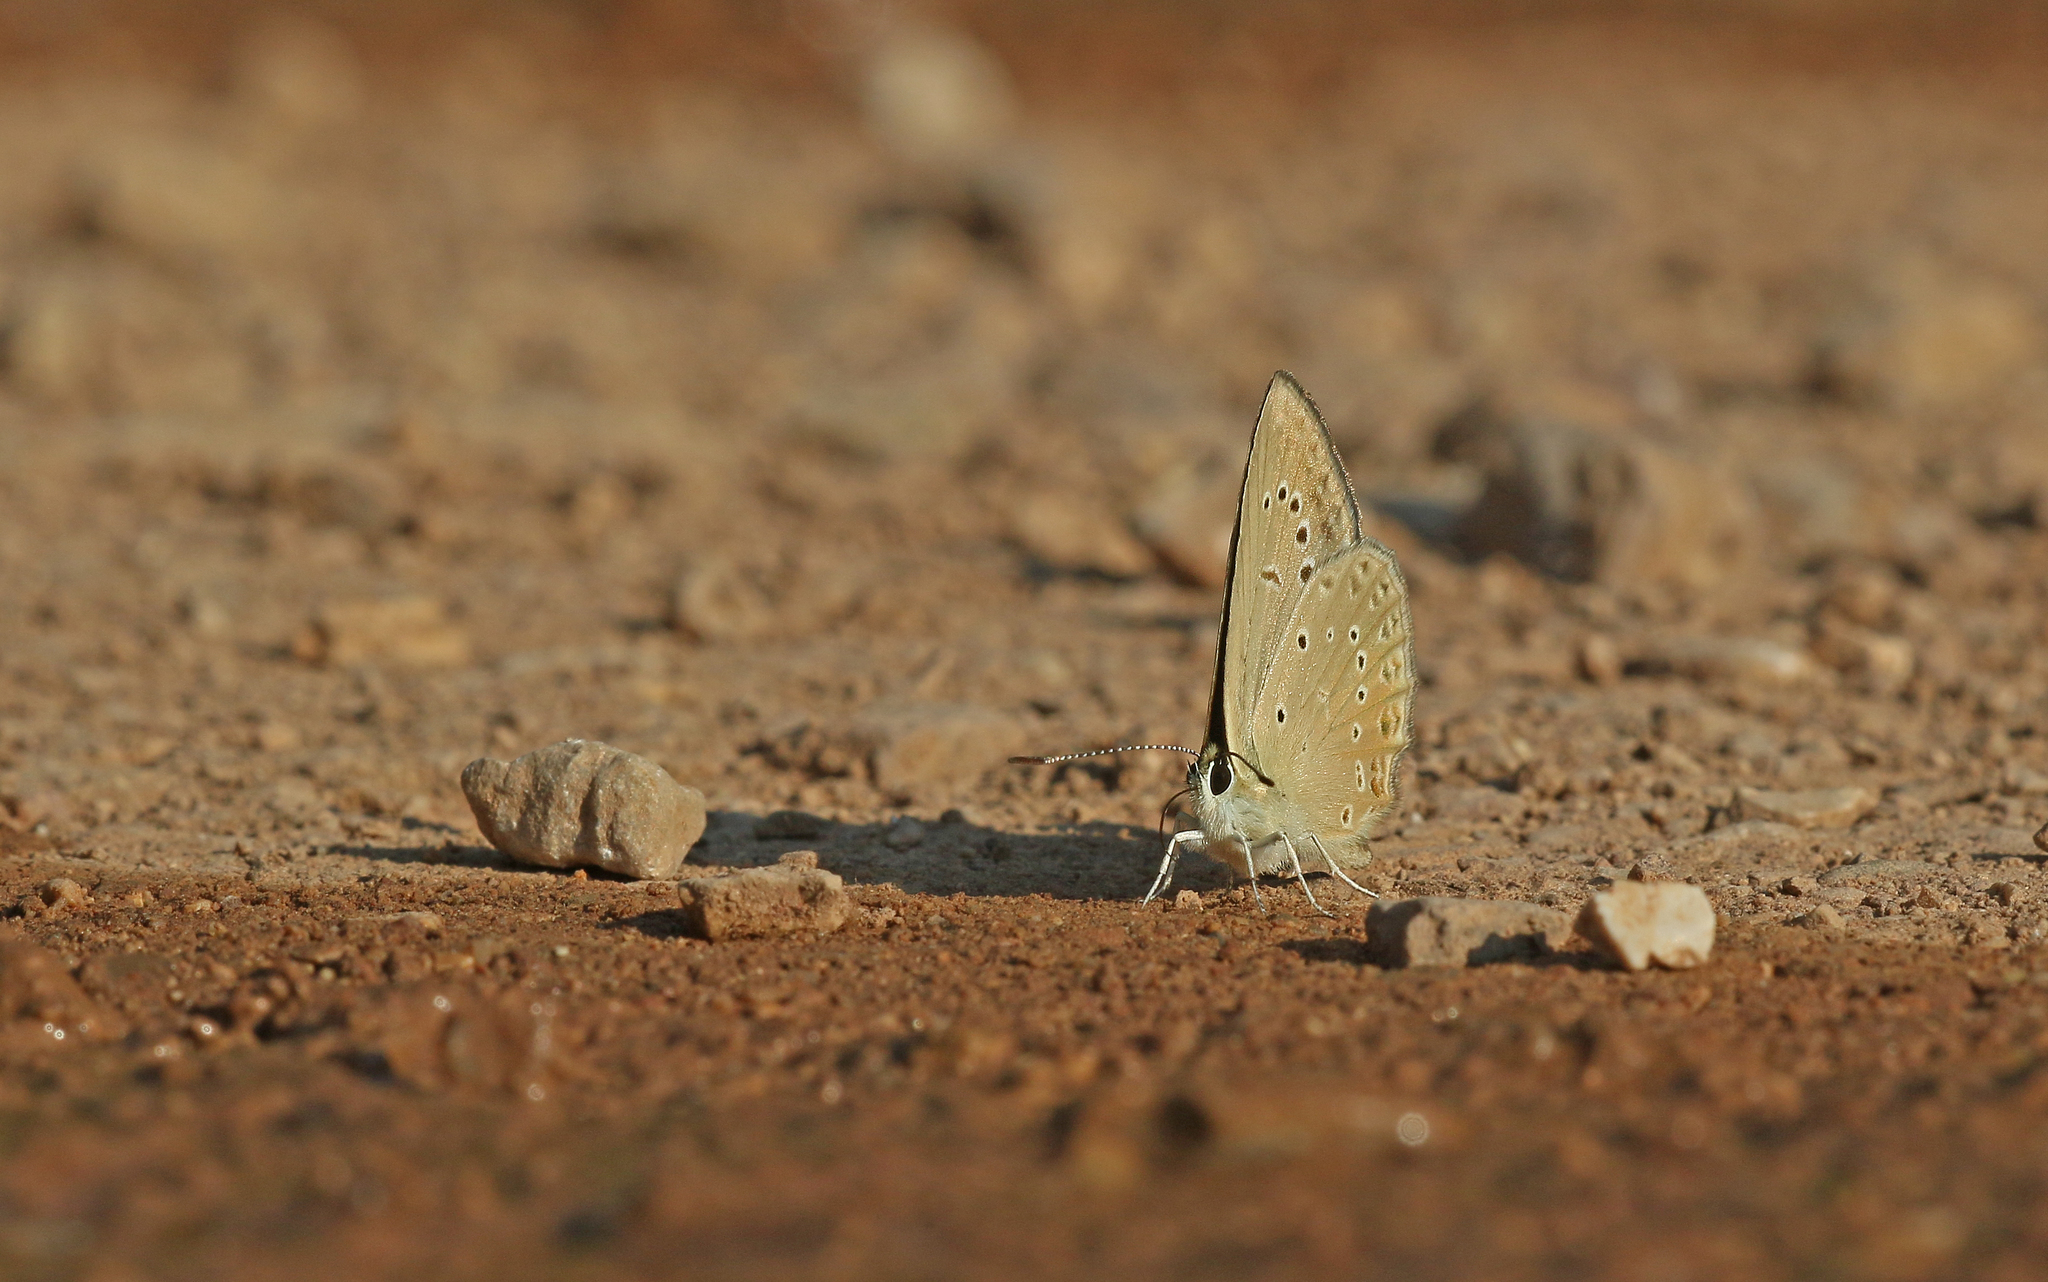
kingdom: Animalia
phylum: Arthropoda
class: Insecta
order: Lepidoptera
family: Lycaenidae
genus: Agrodiaetus
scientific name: Agrodiaetus admetus
